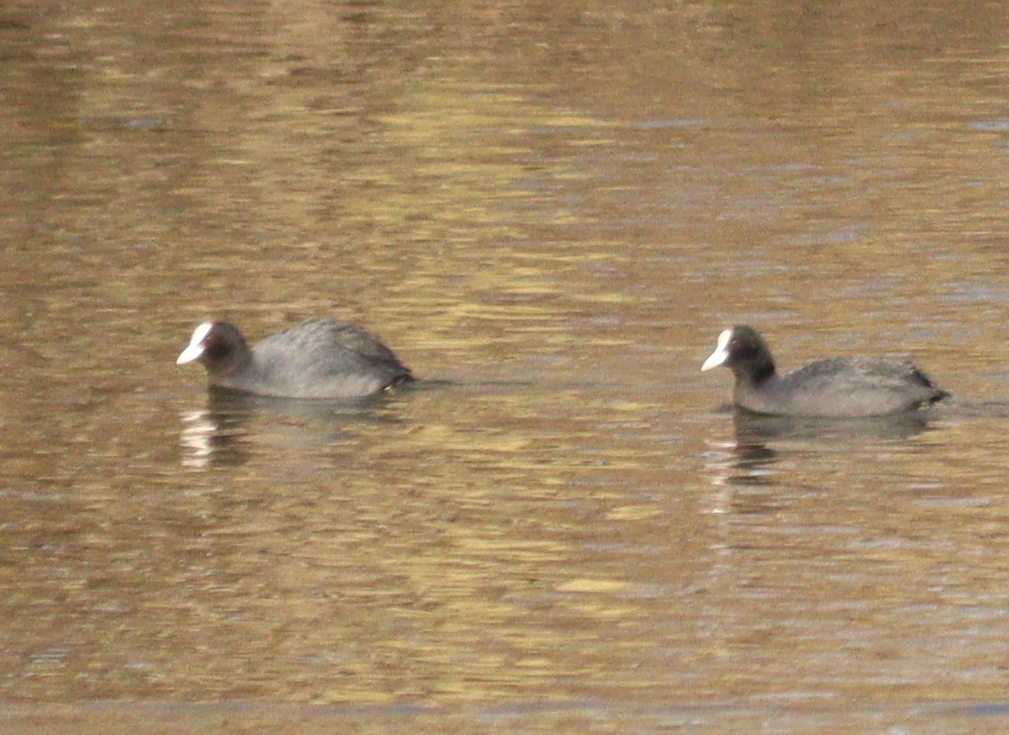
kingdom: Animalia
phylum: Chordata
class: Aves
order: Gruiformes
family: Rallidae
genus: Fulica
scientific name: Fulica atra
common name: Eurasian coot
